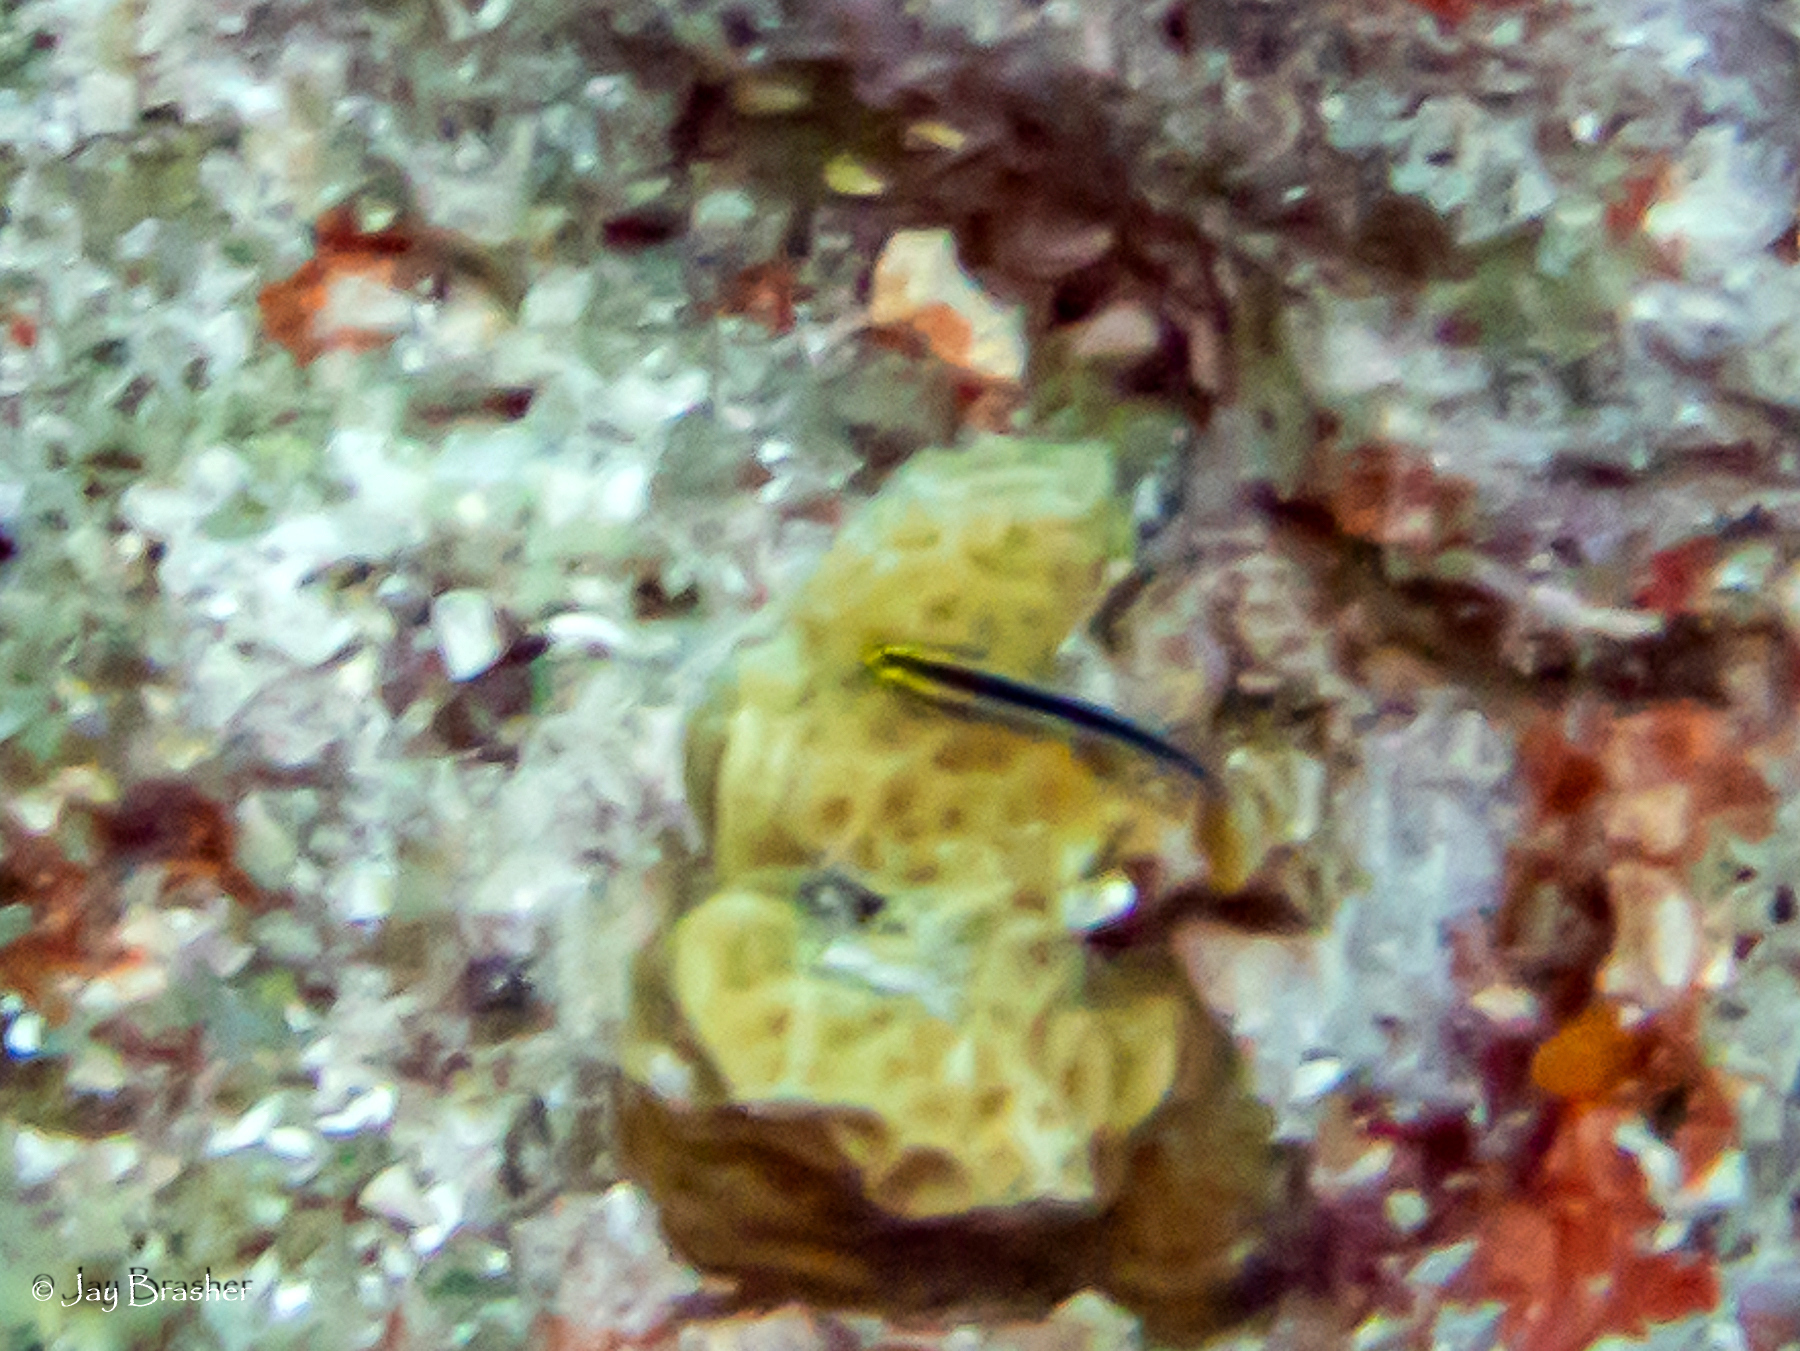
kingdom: Animalia
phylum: Chordata
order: Perciformes
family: Gobiidae
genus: Elacatinus
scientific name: Elacatinus evelynae
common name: Sharknose goby
